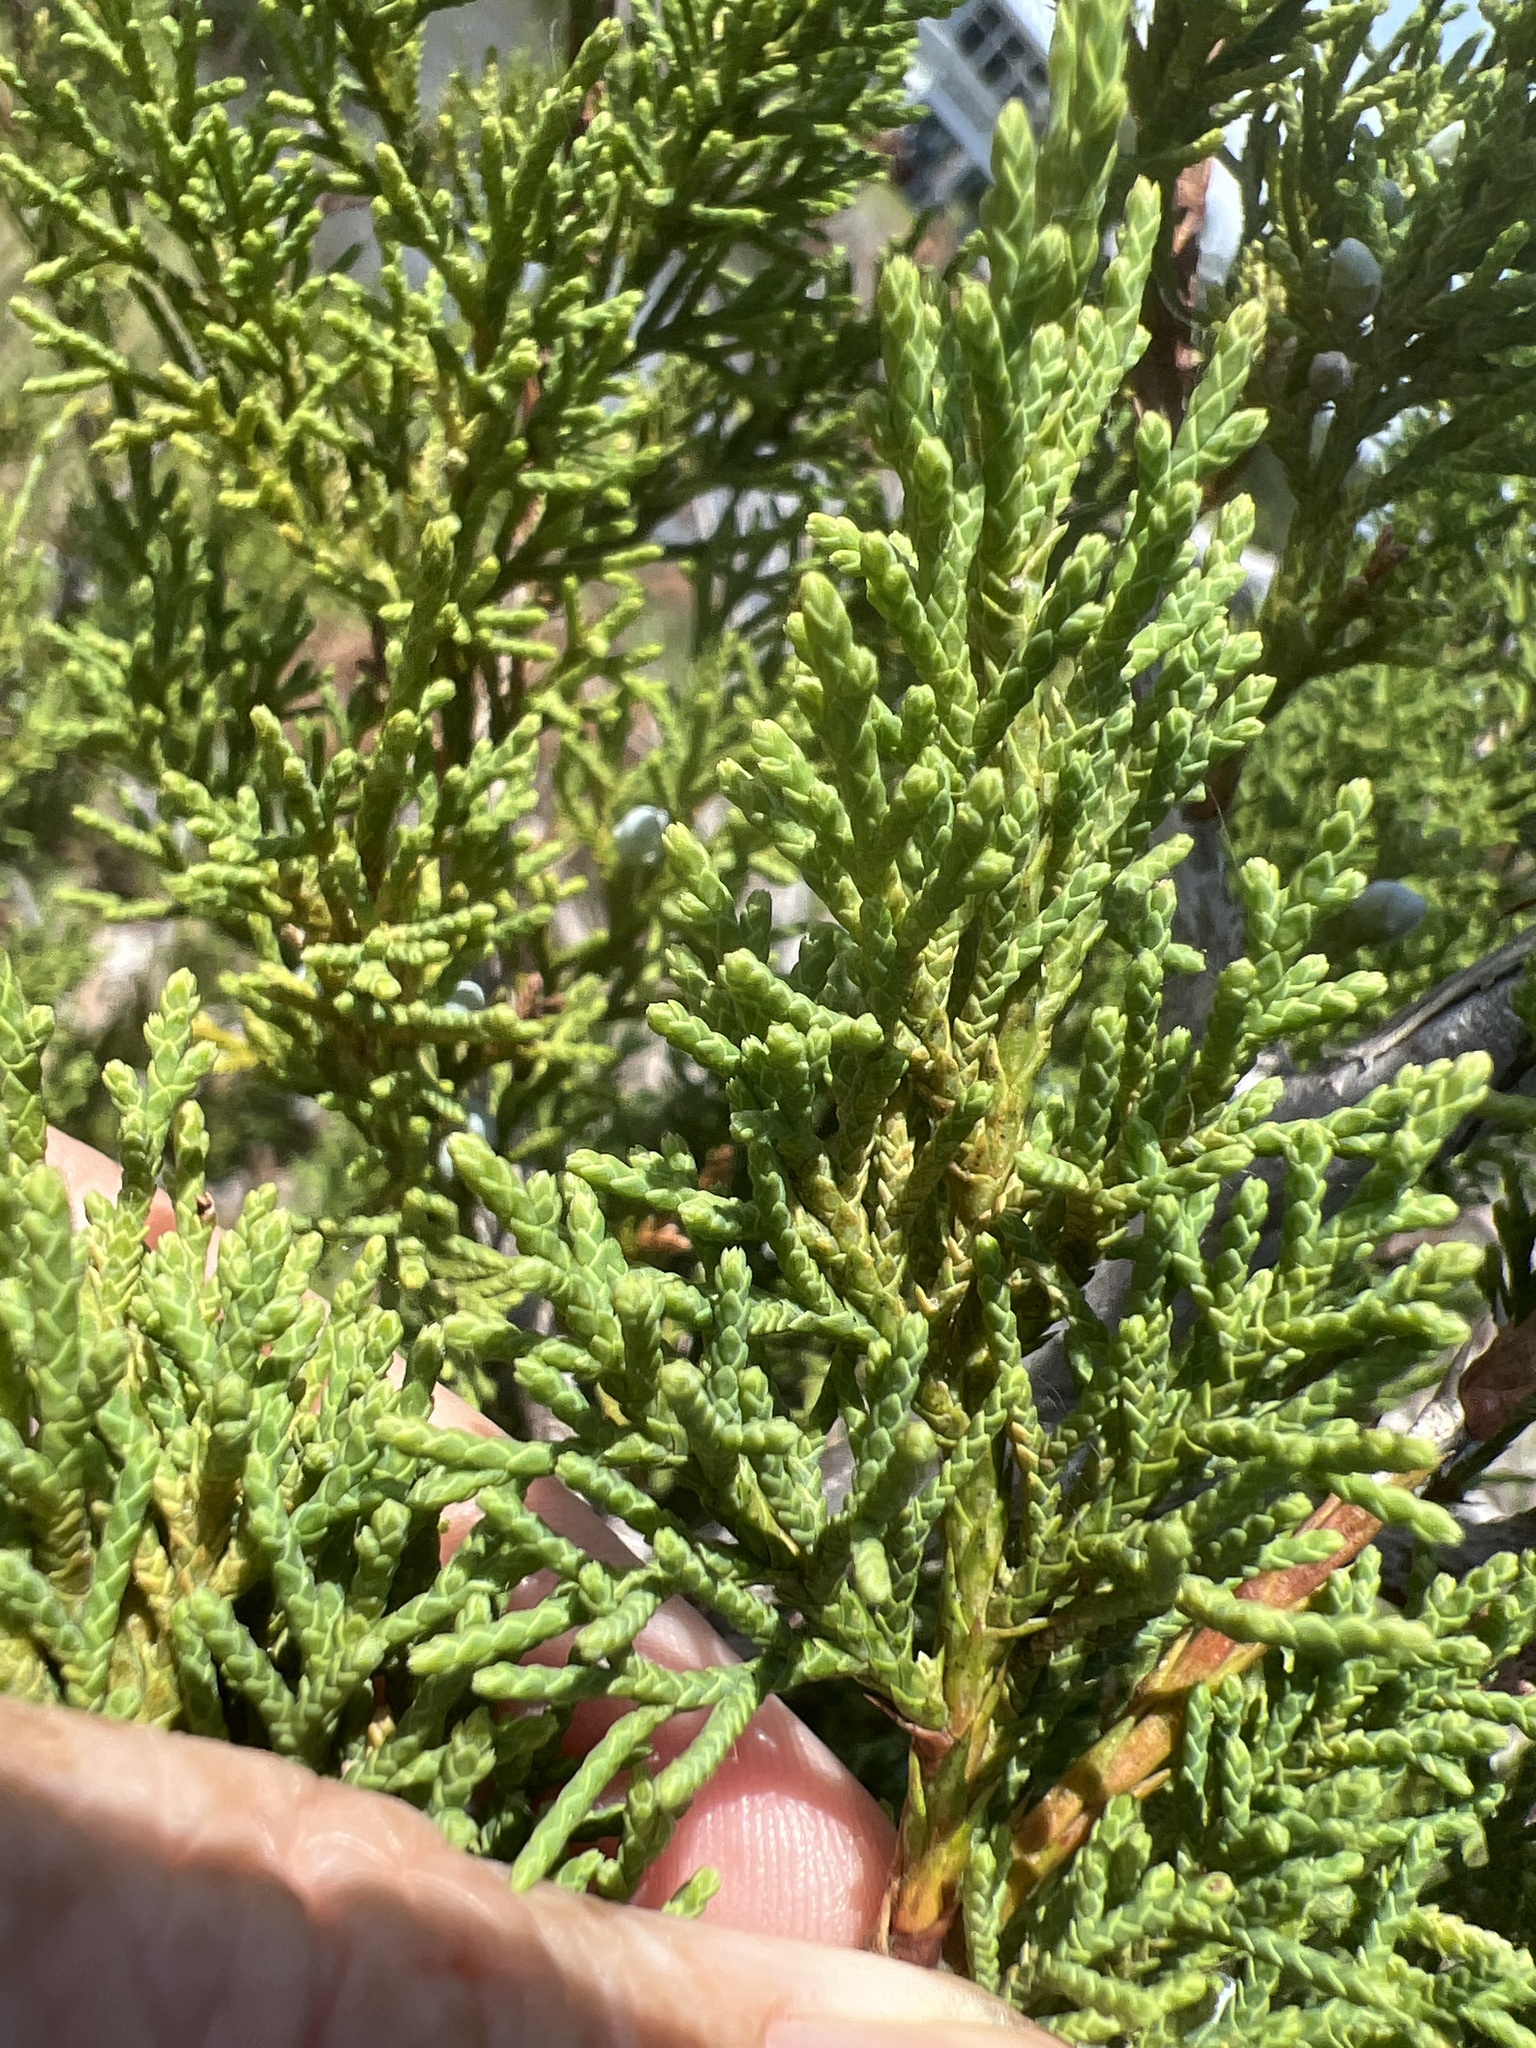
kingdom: Plantae
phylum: Tracheophyta
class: Pinopsida
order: Pinales
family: Cupressaceae
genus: Juniperus
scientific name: Juniperus virginiana
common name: Red juniper
